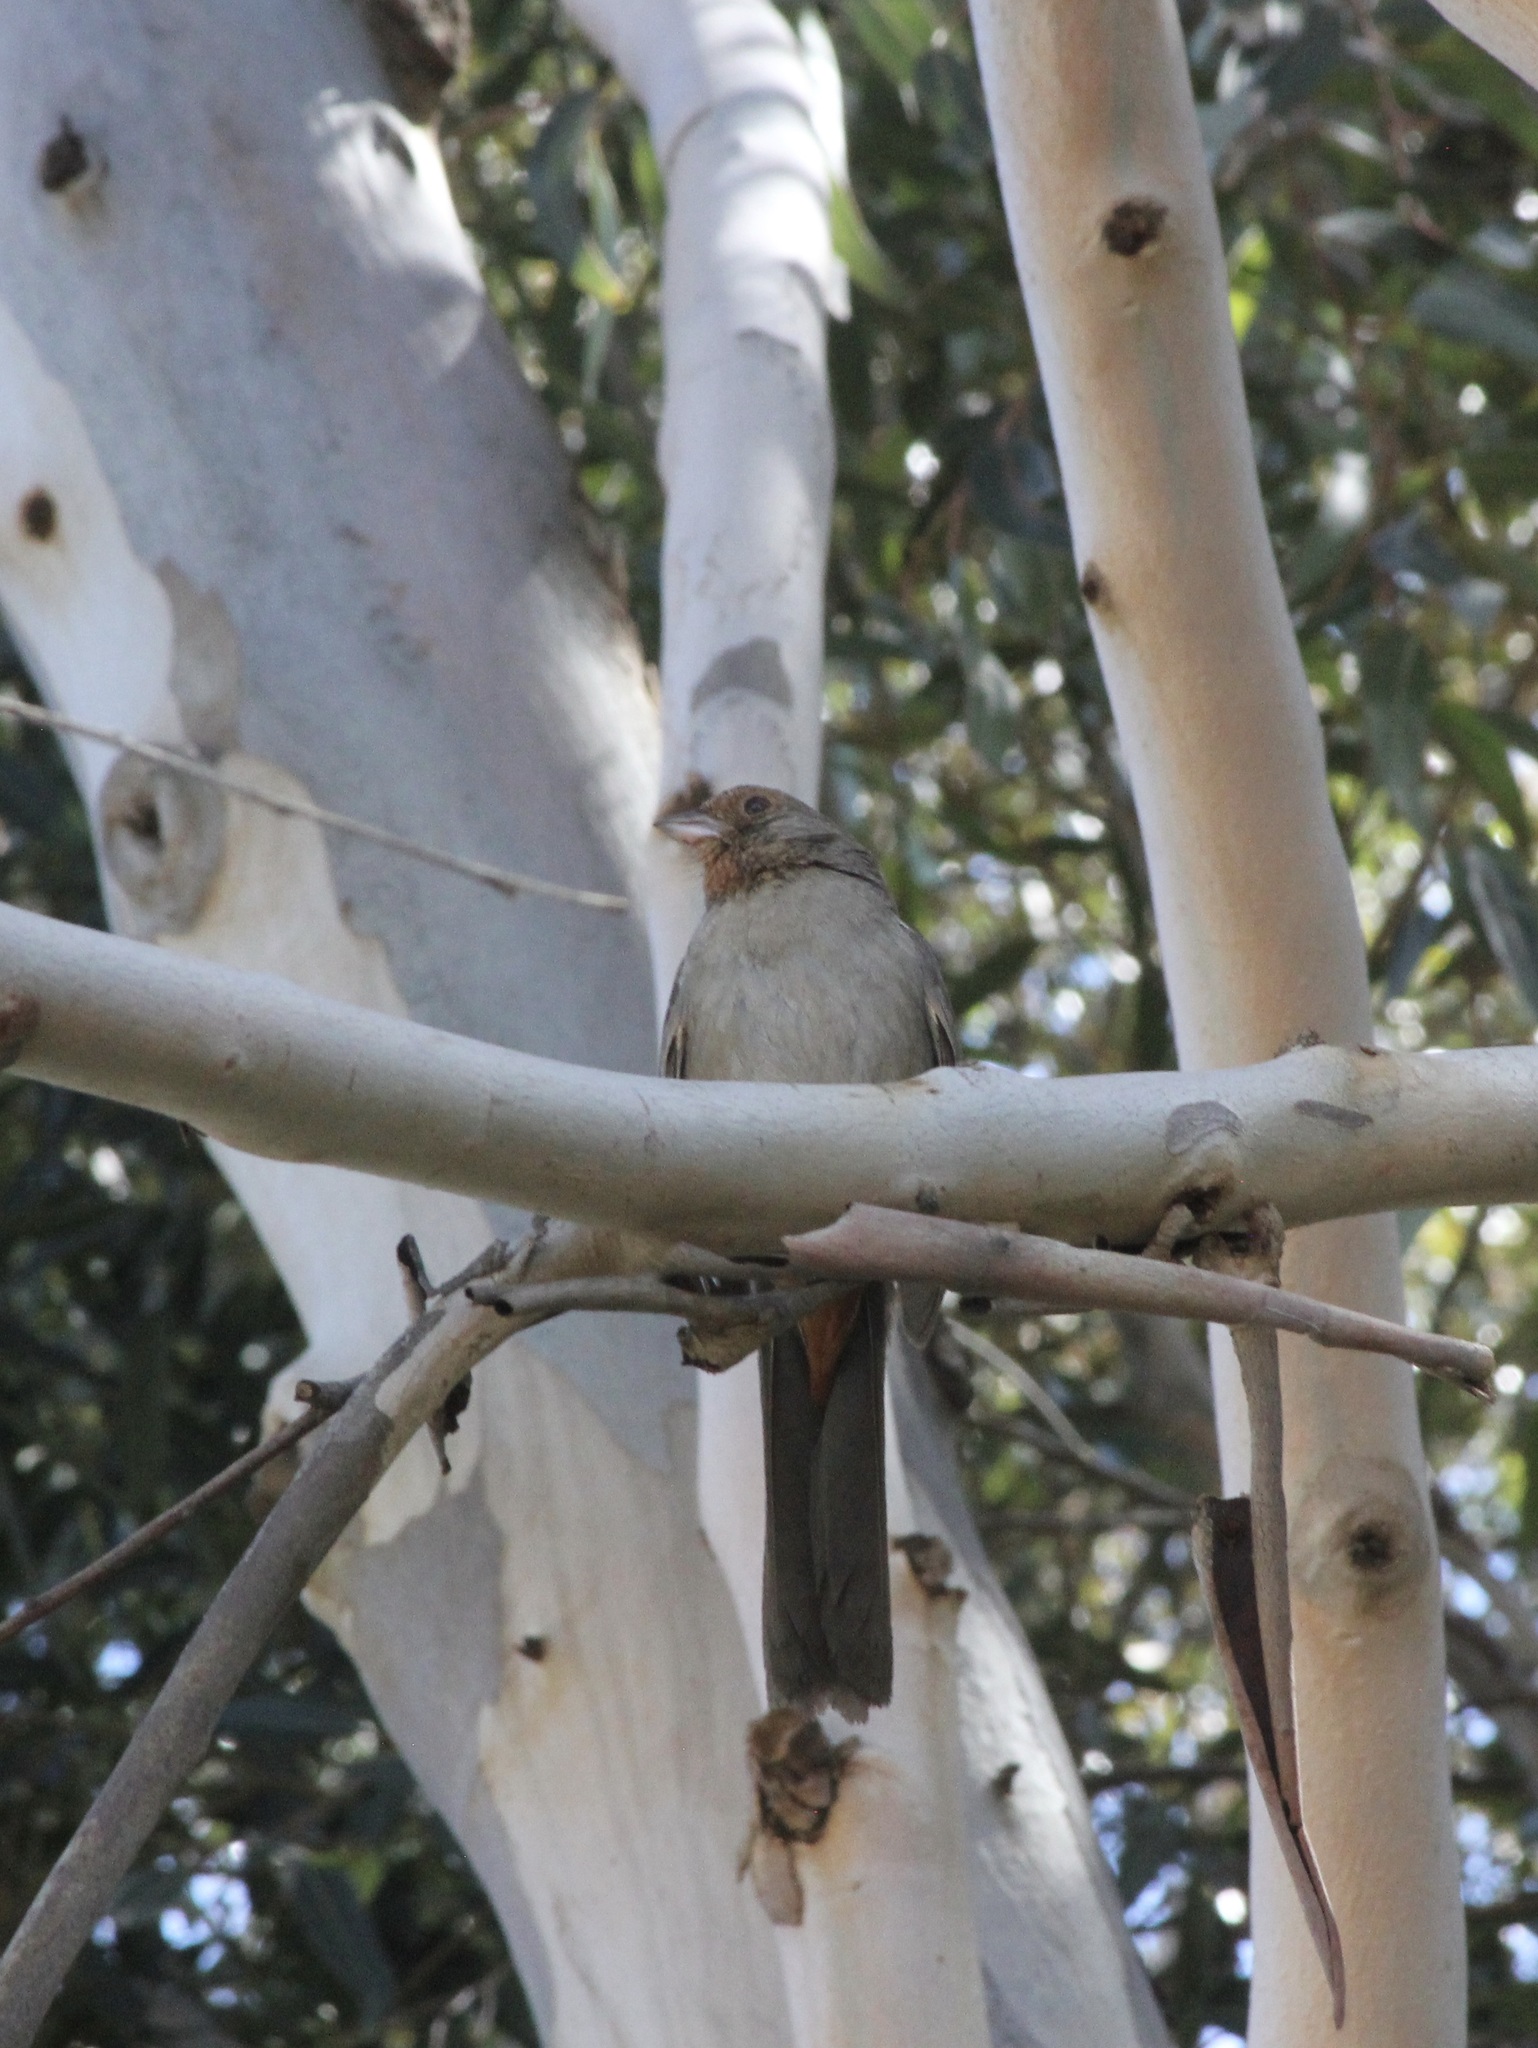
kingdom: Animalia
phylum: Chordata
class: Aves
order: Passeriformes
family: Passerellidae
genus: Melozone
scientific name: Melozone crissalis
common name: California towhee
